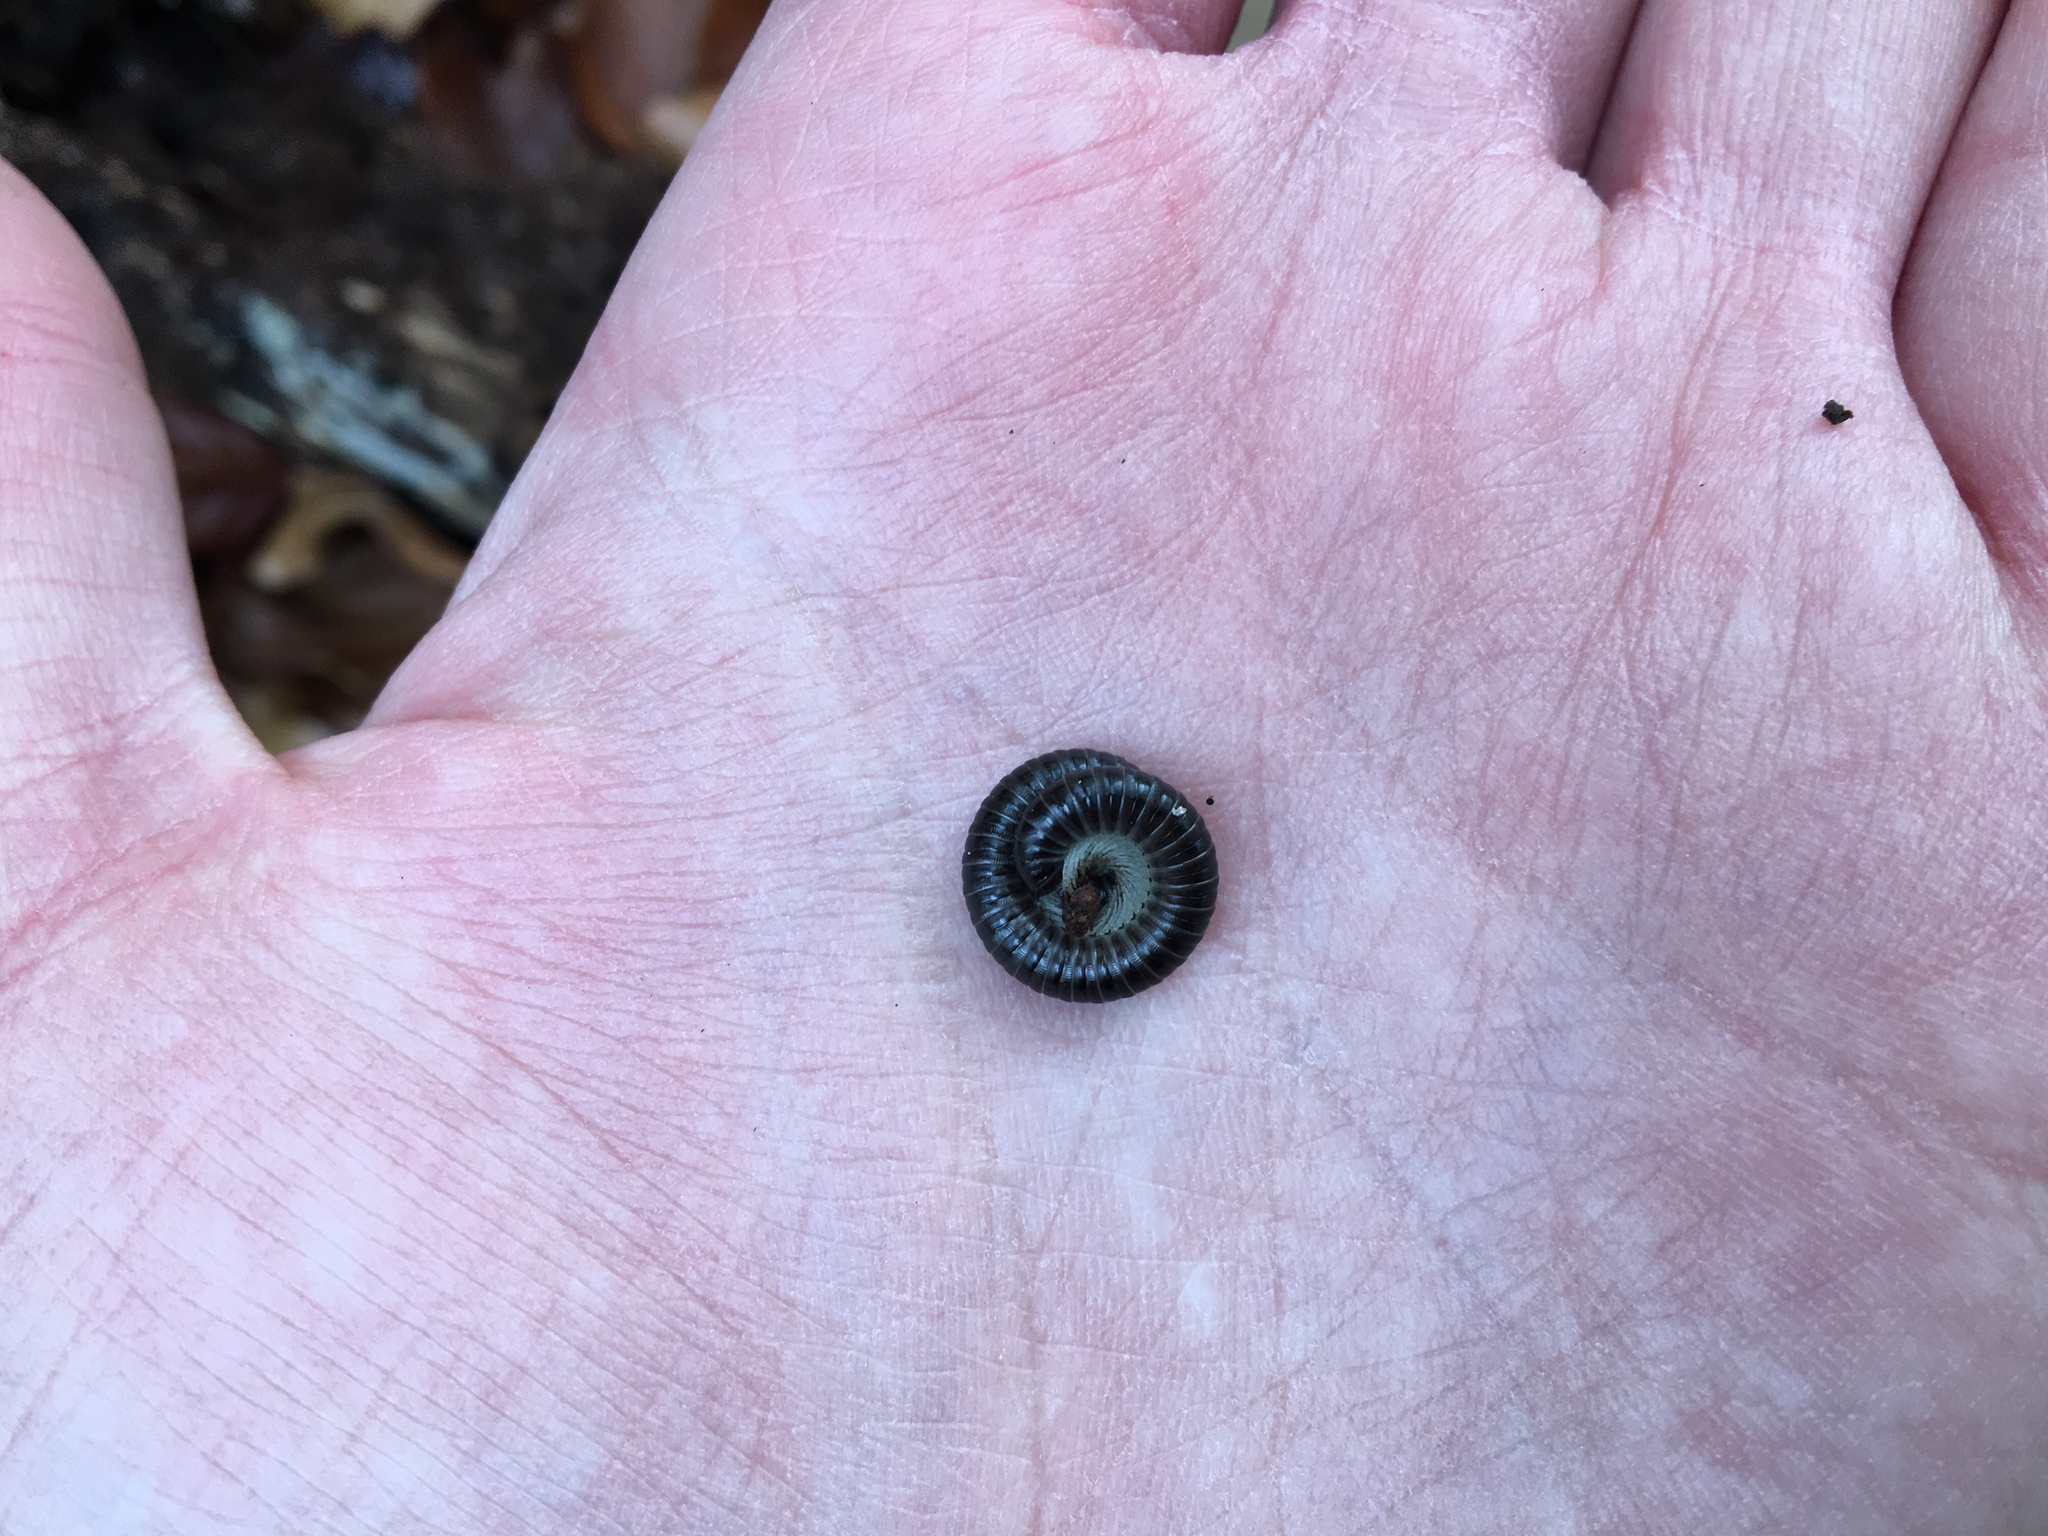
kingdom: Animalia
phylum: Arthropoda
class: Diplopoda
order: Julida
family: Julidae
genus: Tachypodoiulus
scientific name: Tachypodoiulus niger
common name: White-legged snake millipede
